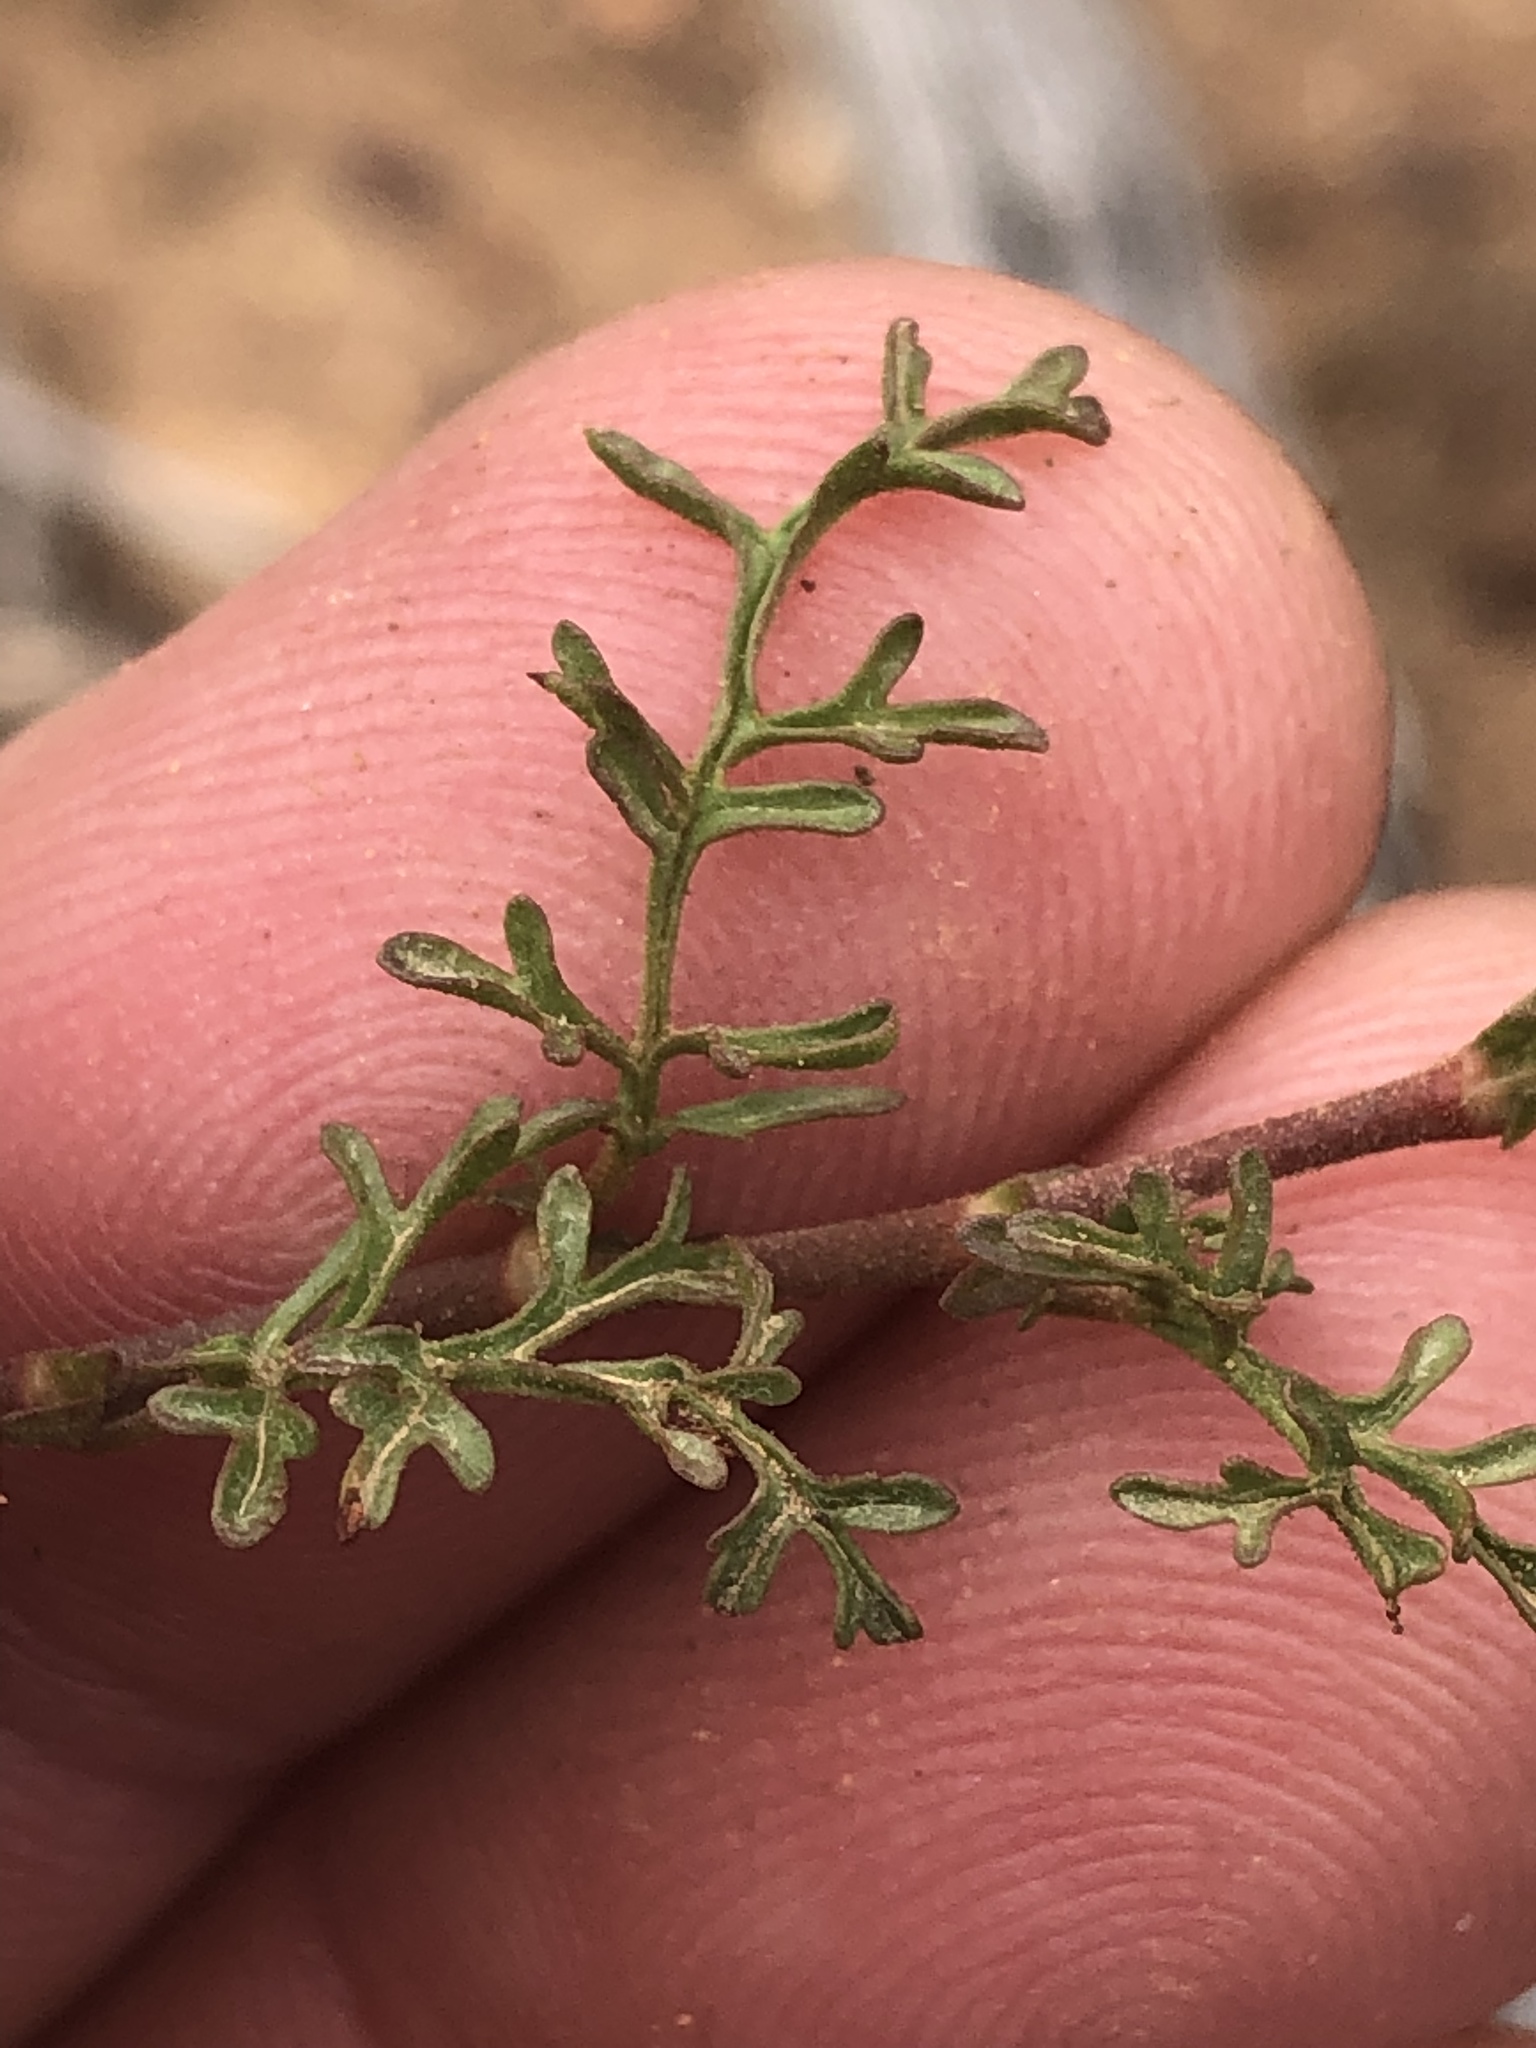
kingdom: Plantae
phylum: Tracheophyta
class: Magnoliopsida
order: Malvales
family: Malvaceae
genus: Hermannia
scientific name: Hermannia bicolor
